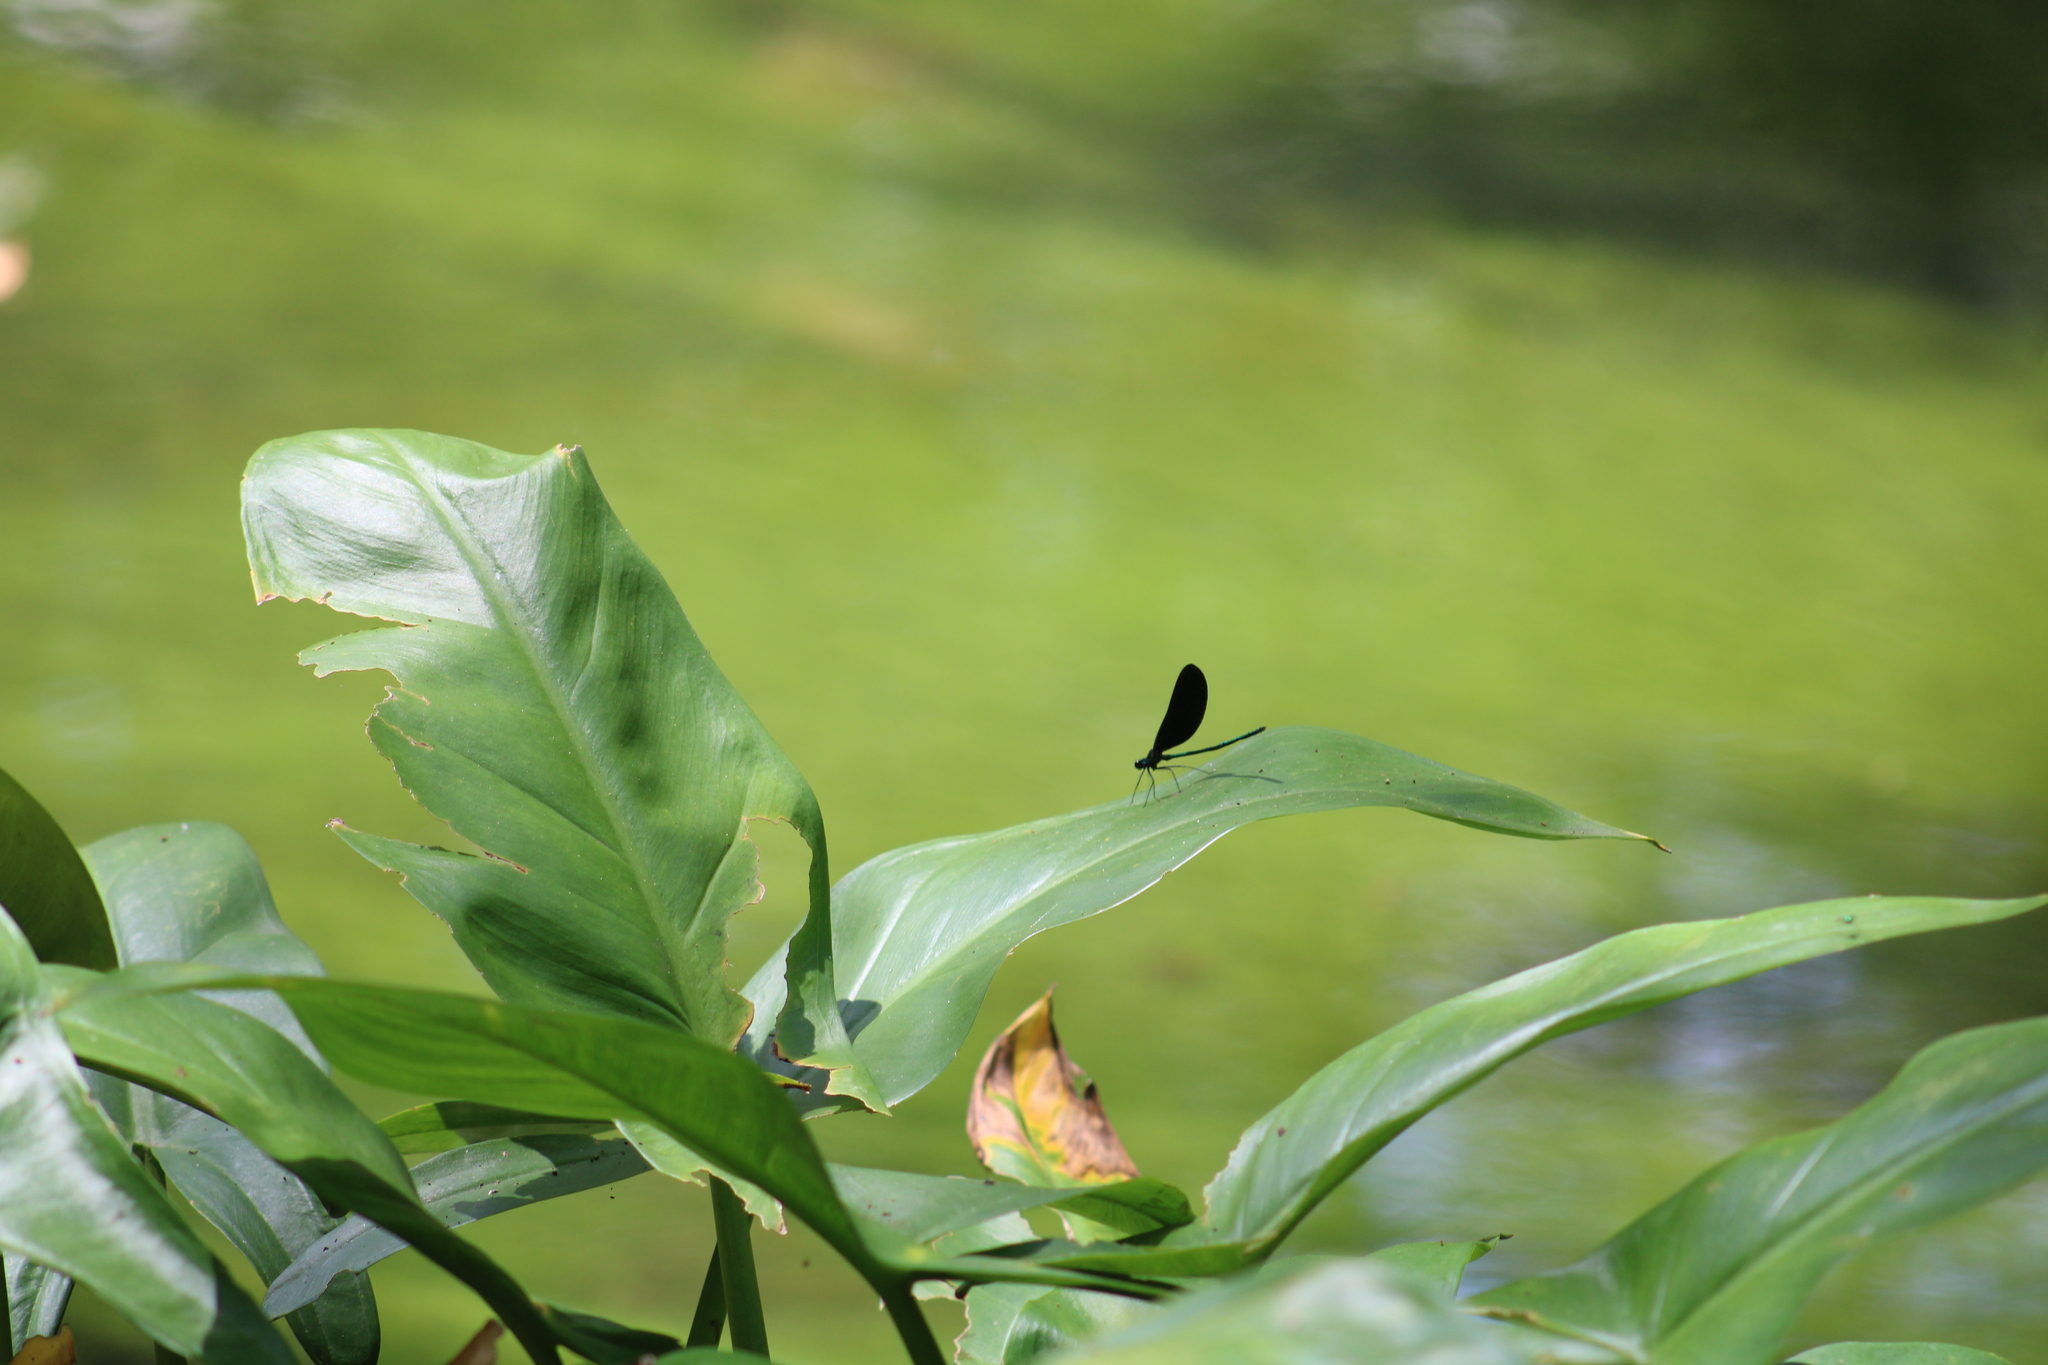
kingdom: Animalia
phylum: Arthropoda
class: Insecta
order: Odonata
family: Calopterygidae
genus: Calopteryx
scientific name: Calopteryx maculata
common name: Ebony jewelwing
